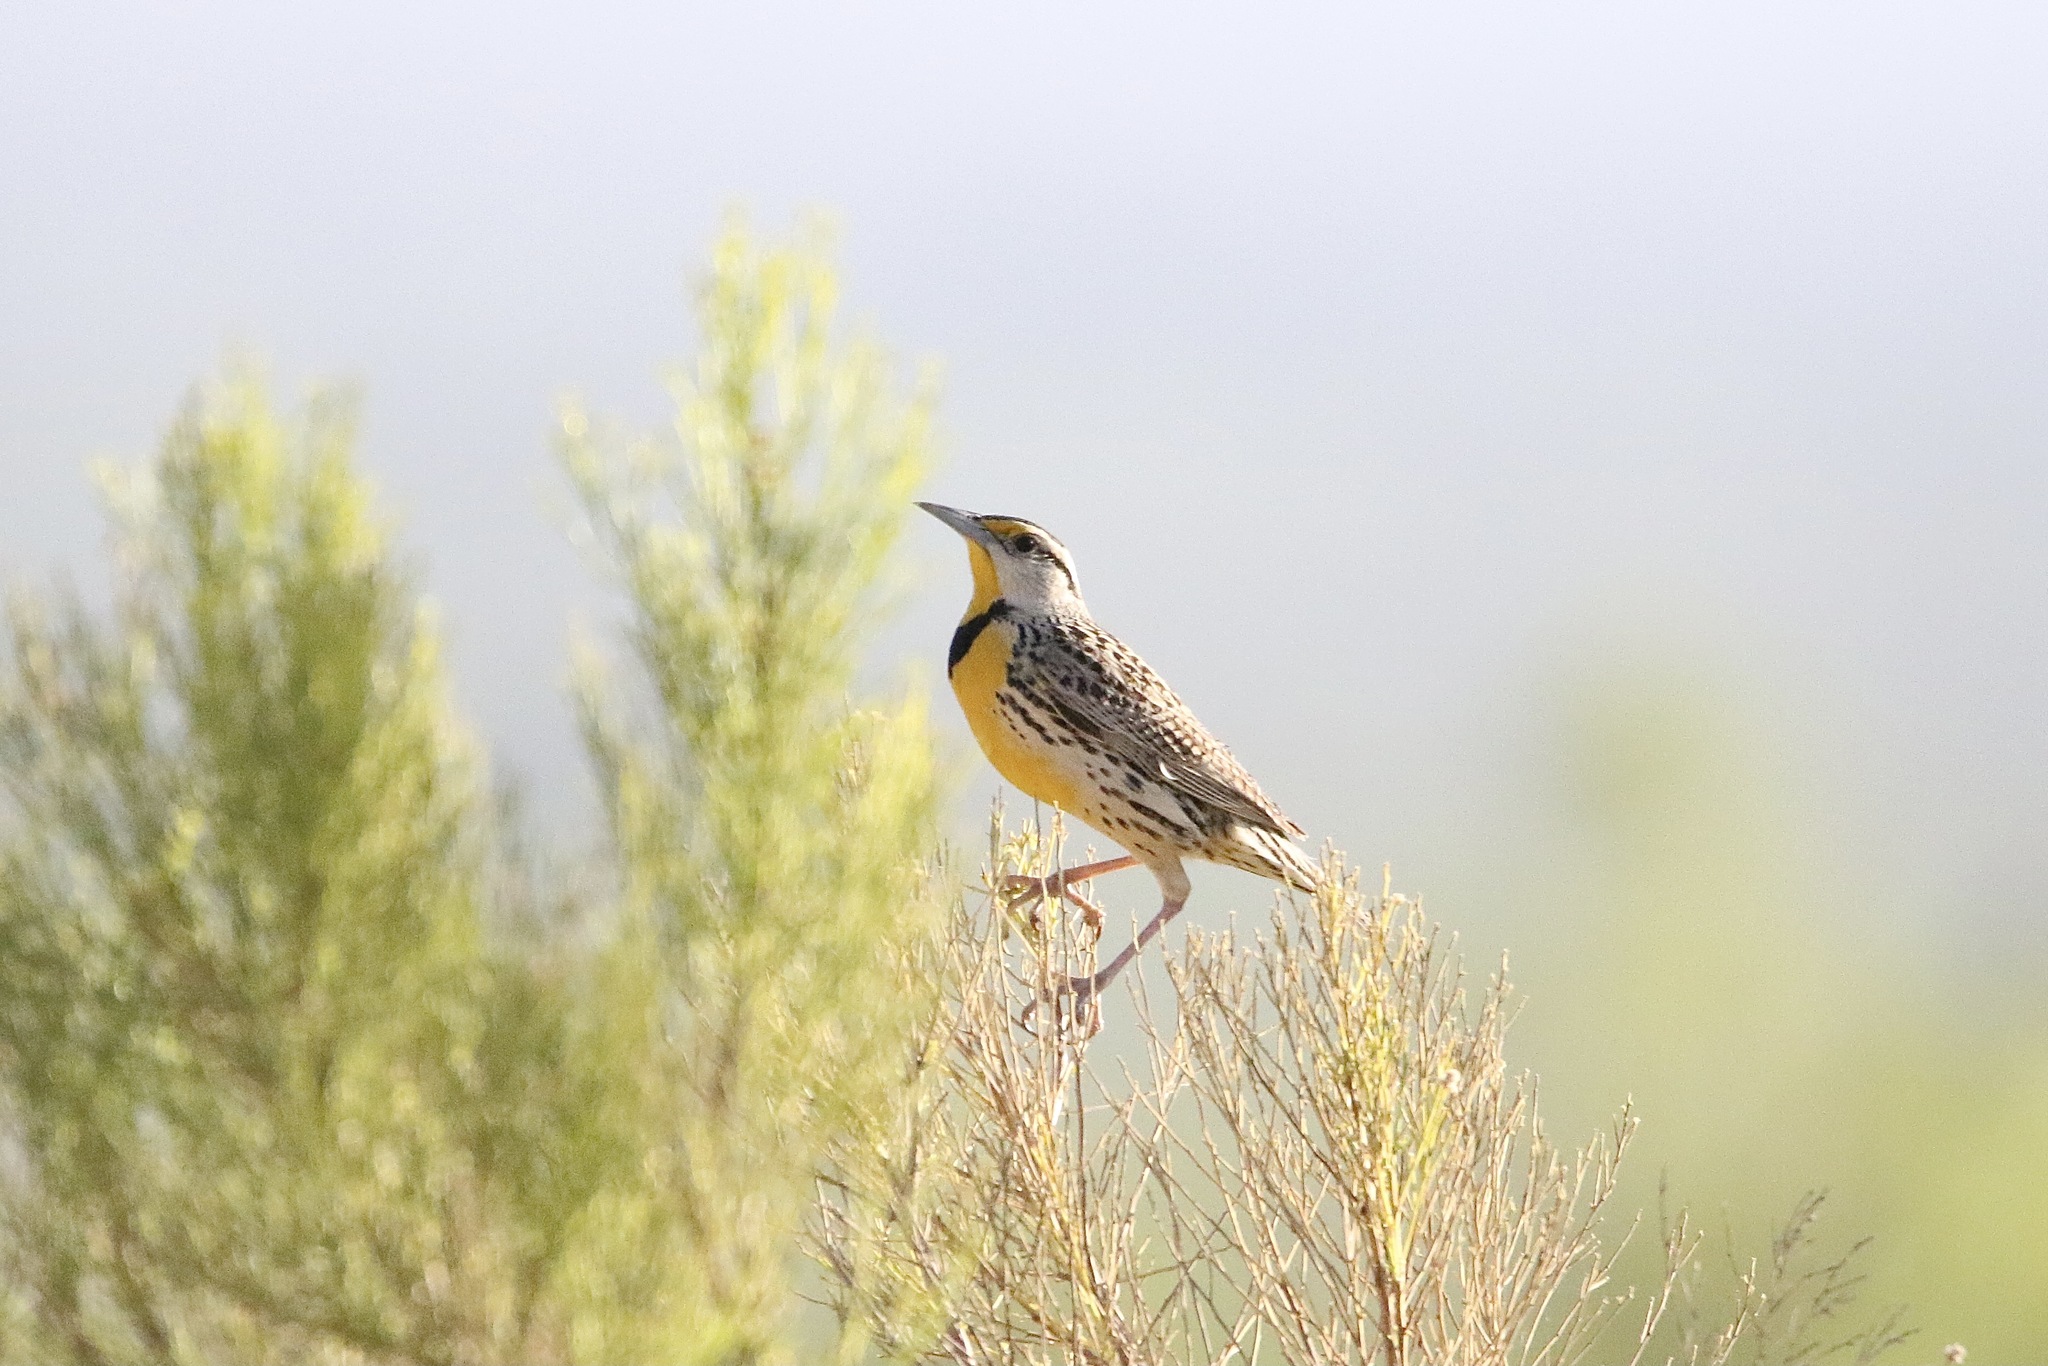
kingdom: Animalia
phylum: Chordata
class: Aves
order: Passeriformes
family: Icteridae
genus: Sturnella
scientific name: Sturnella lilianae
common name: Lilian's meadowlark
